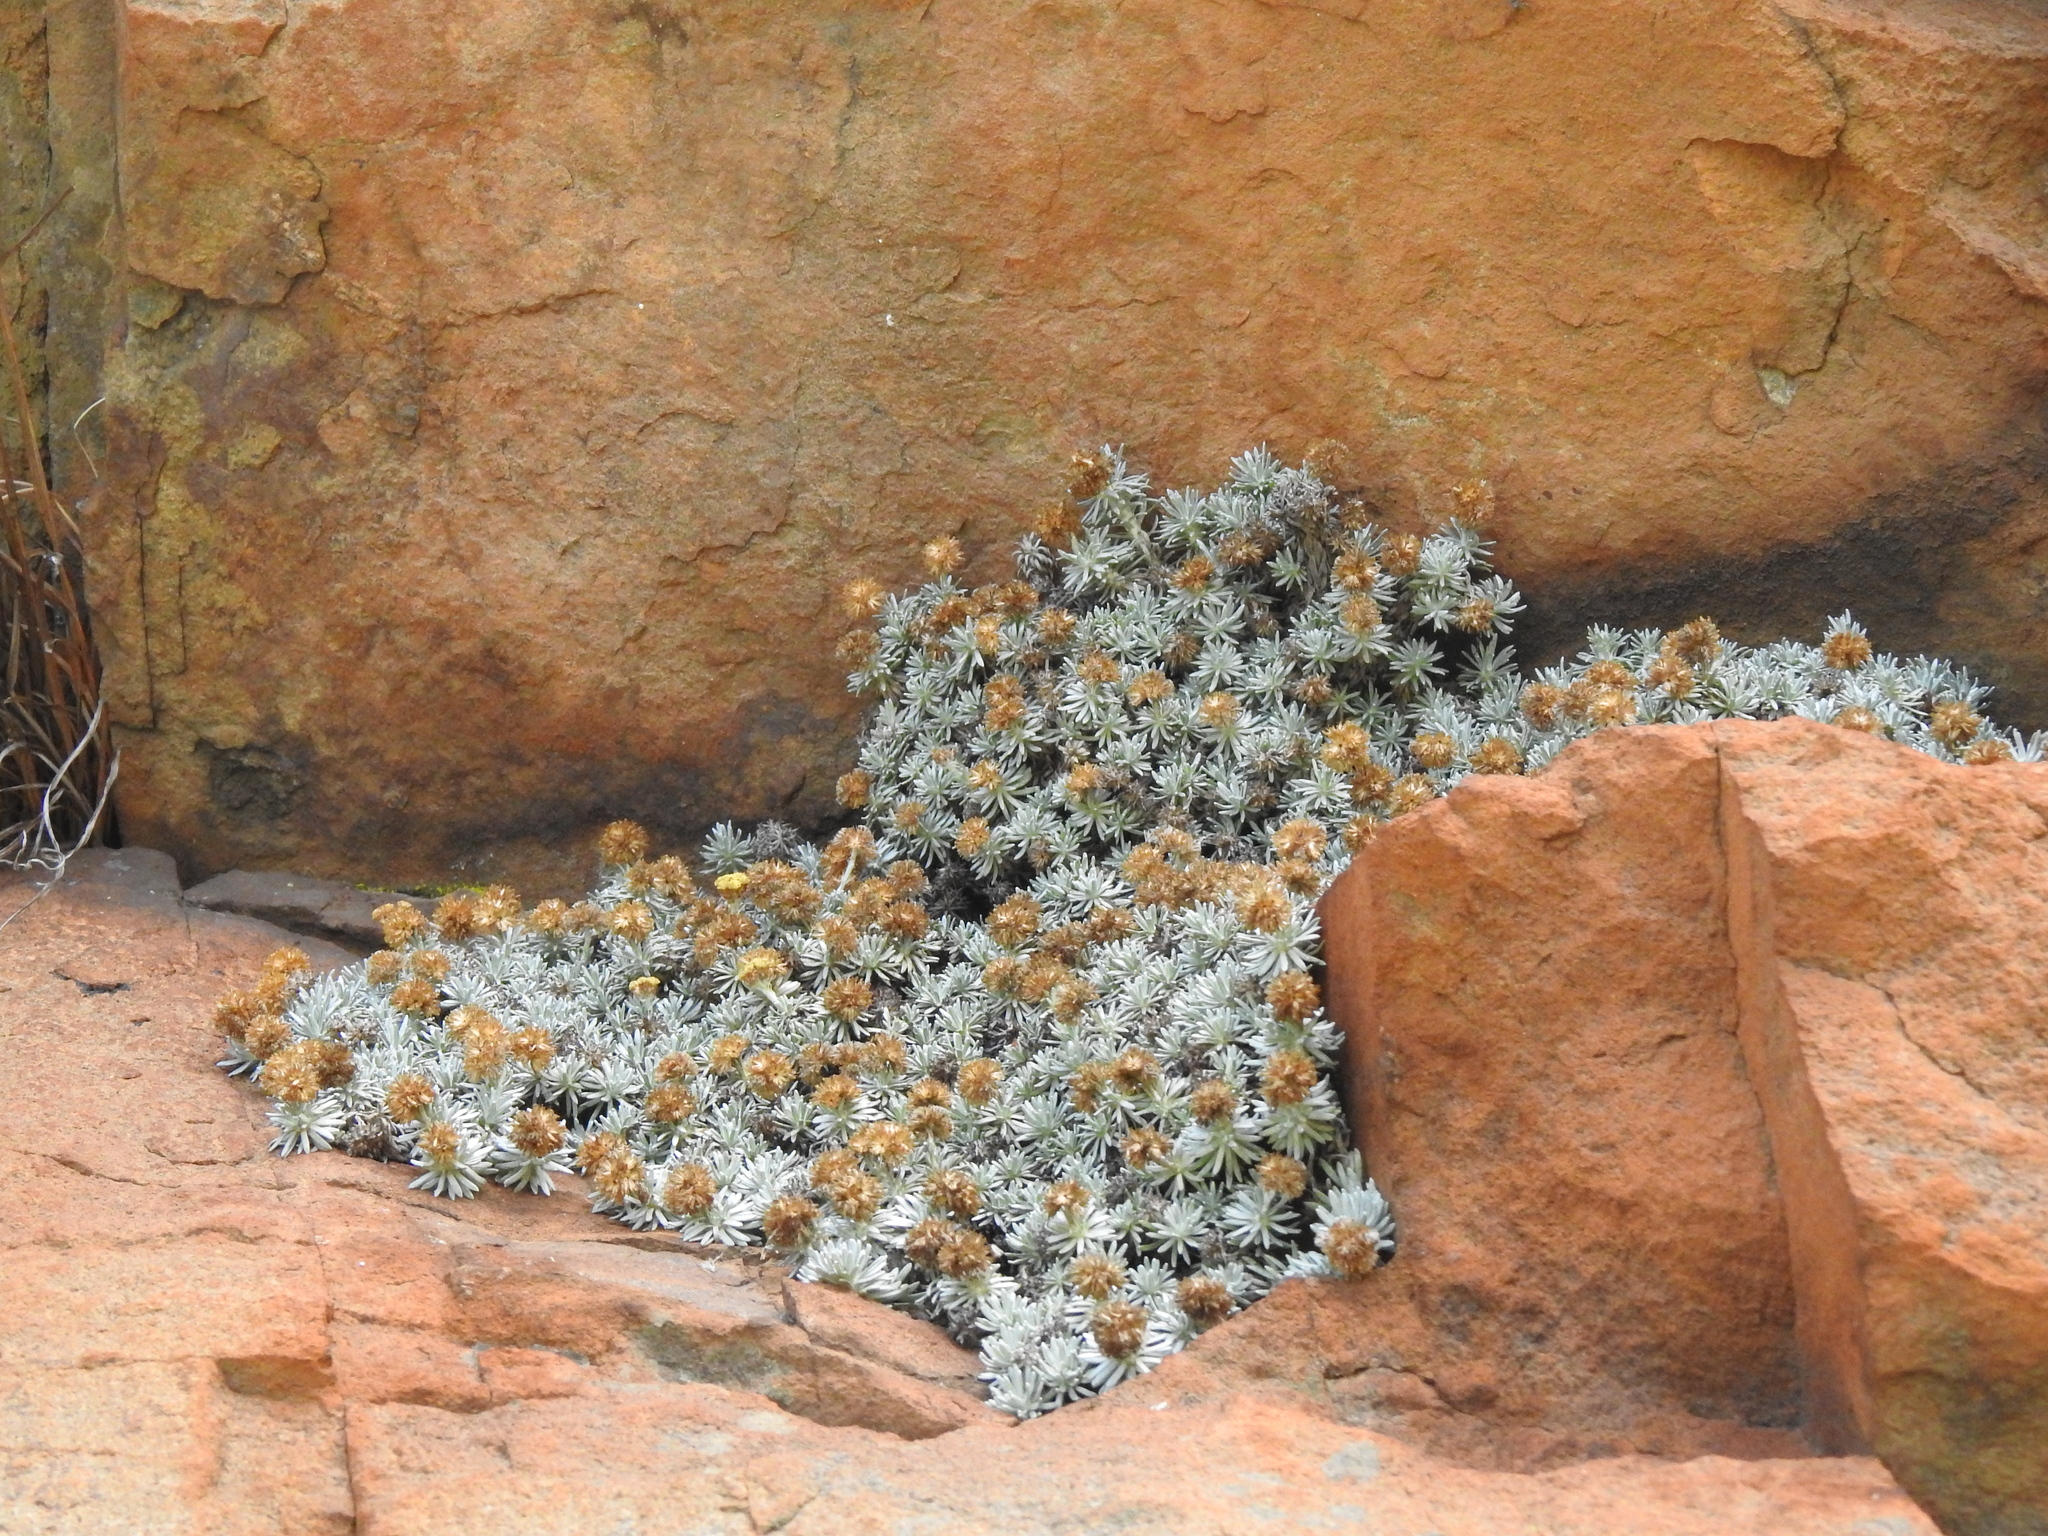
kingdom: Plantae
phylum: Tracheophyta
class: Magnoliopsida
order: Asterales
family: Asteraceae
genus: Helichrysum
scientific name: Helichrysum galpinii
